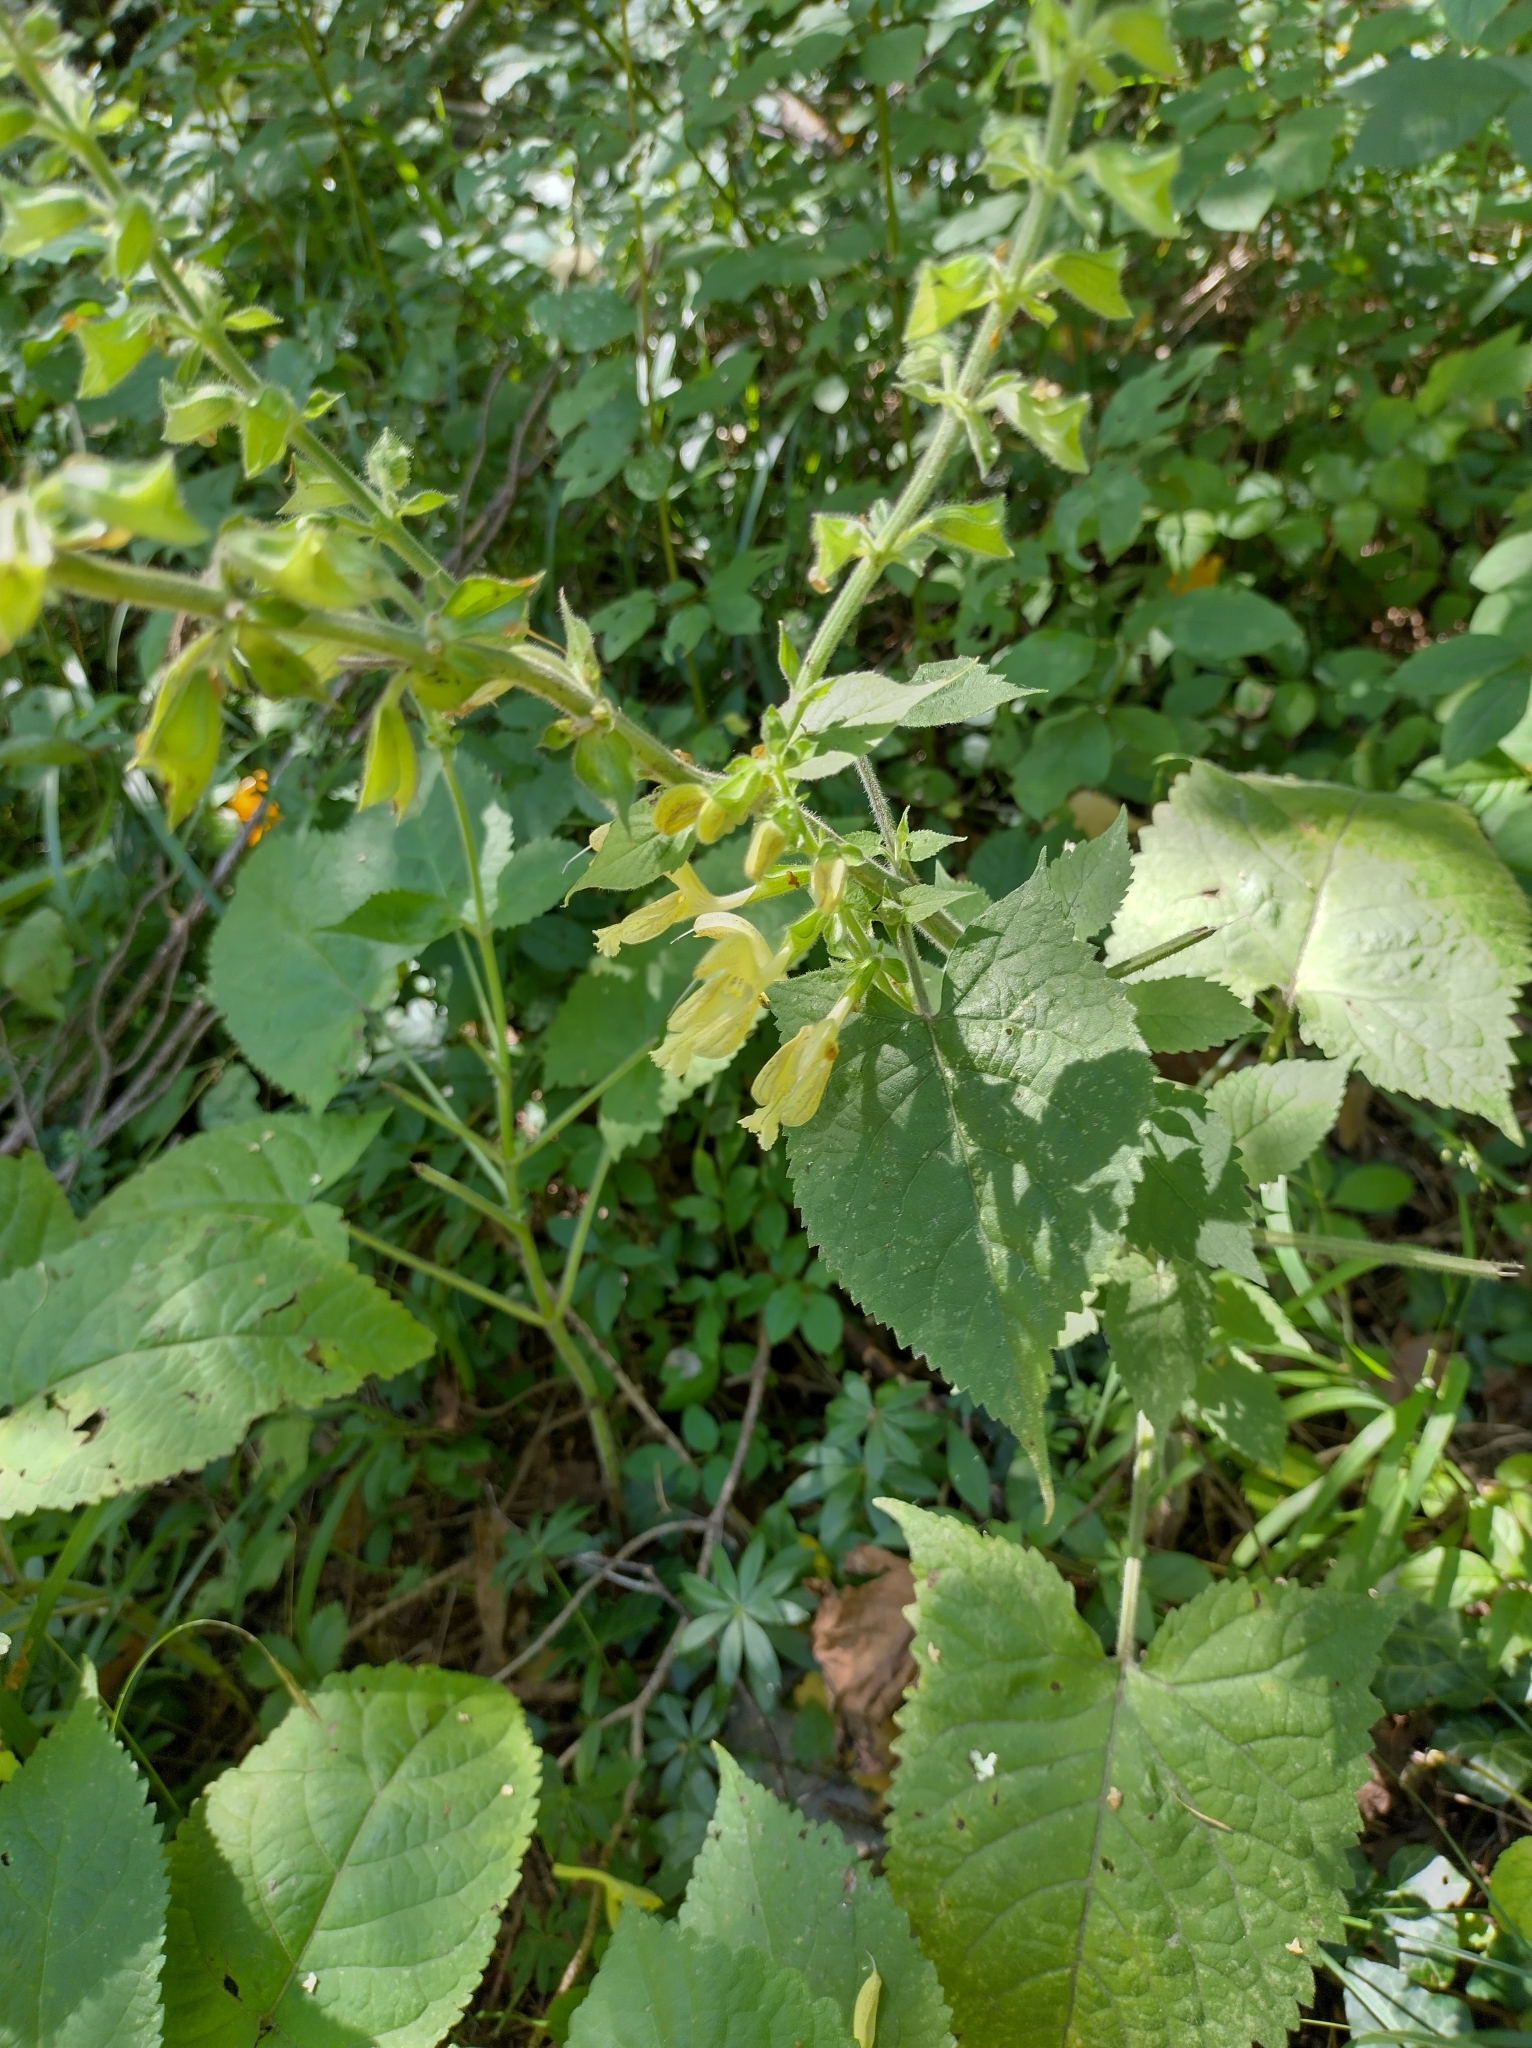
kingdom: Plantae
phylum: Tracheophyta
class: Magnoliopsida
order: Lamiales
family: Lamiaceae
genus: Salvia
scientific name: Salvia glutinosa
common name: Sticky clary
